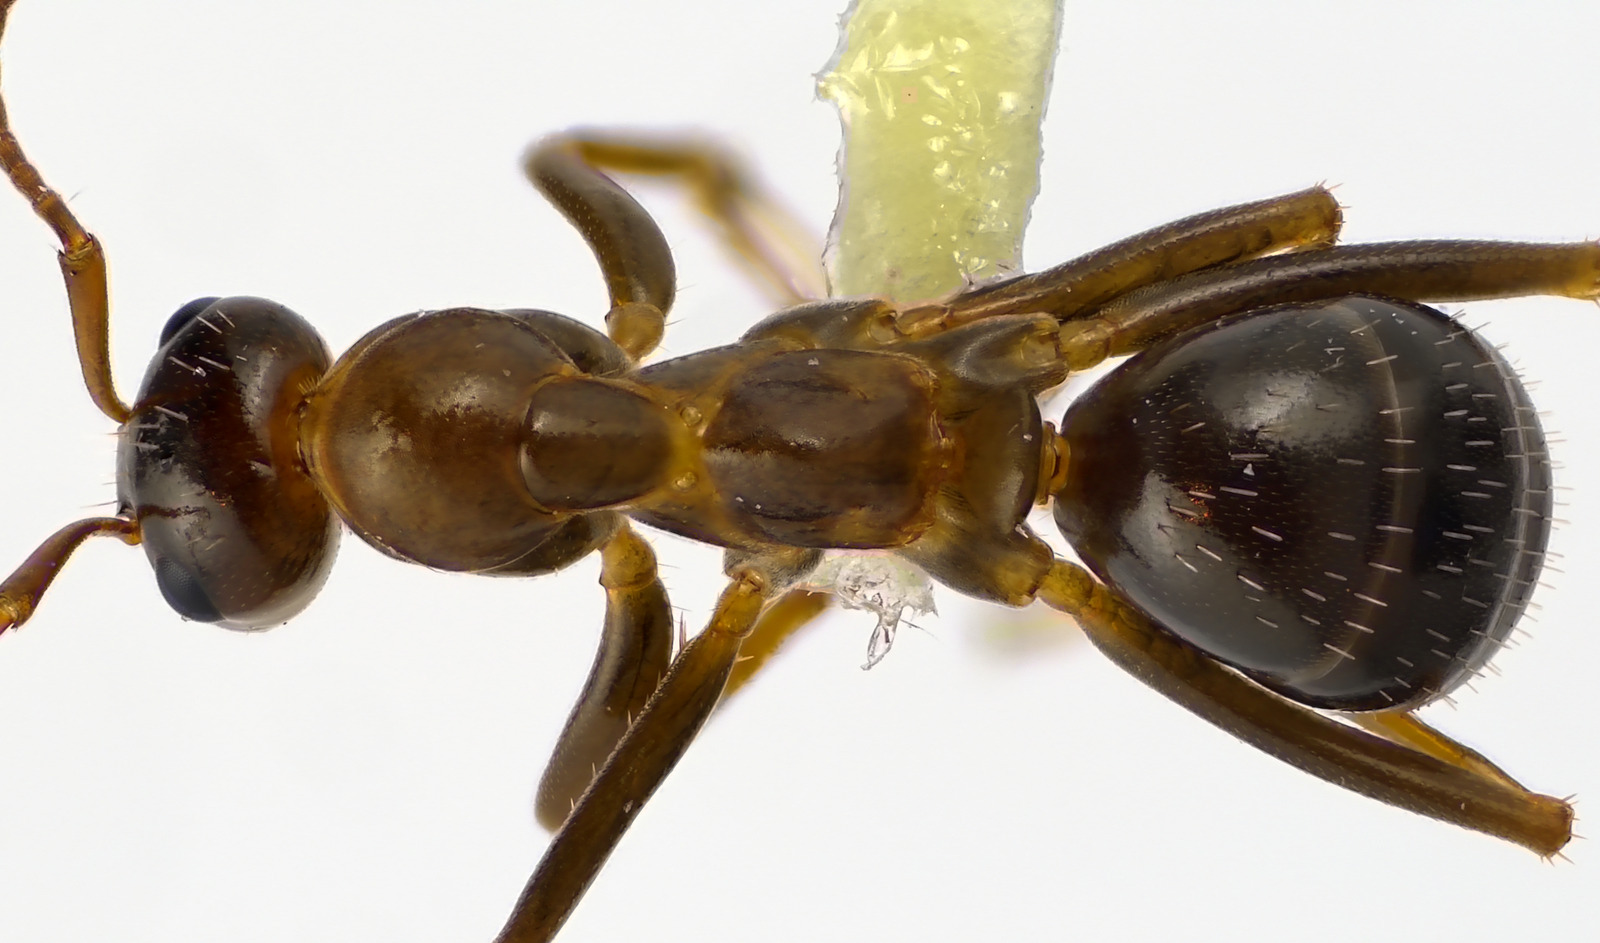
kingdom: Animalia
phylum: Arthropoda
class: Insecta
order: Hymenoptera
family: Formicidae
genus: Formica
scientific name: Formica pallidefulva
